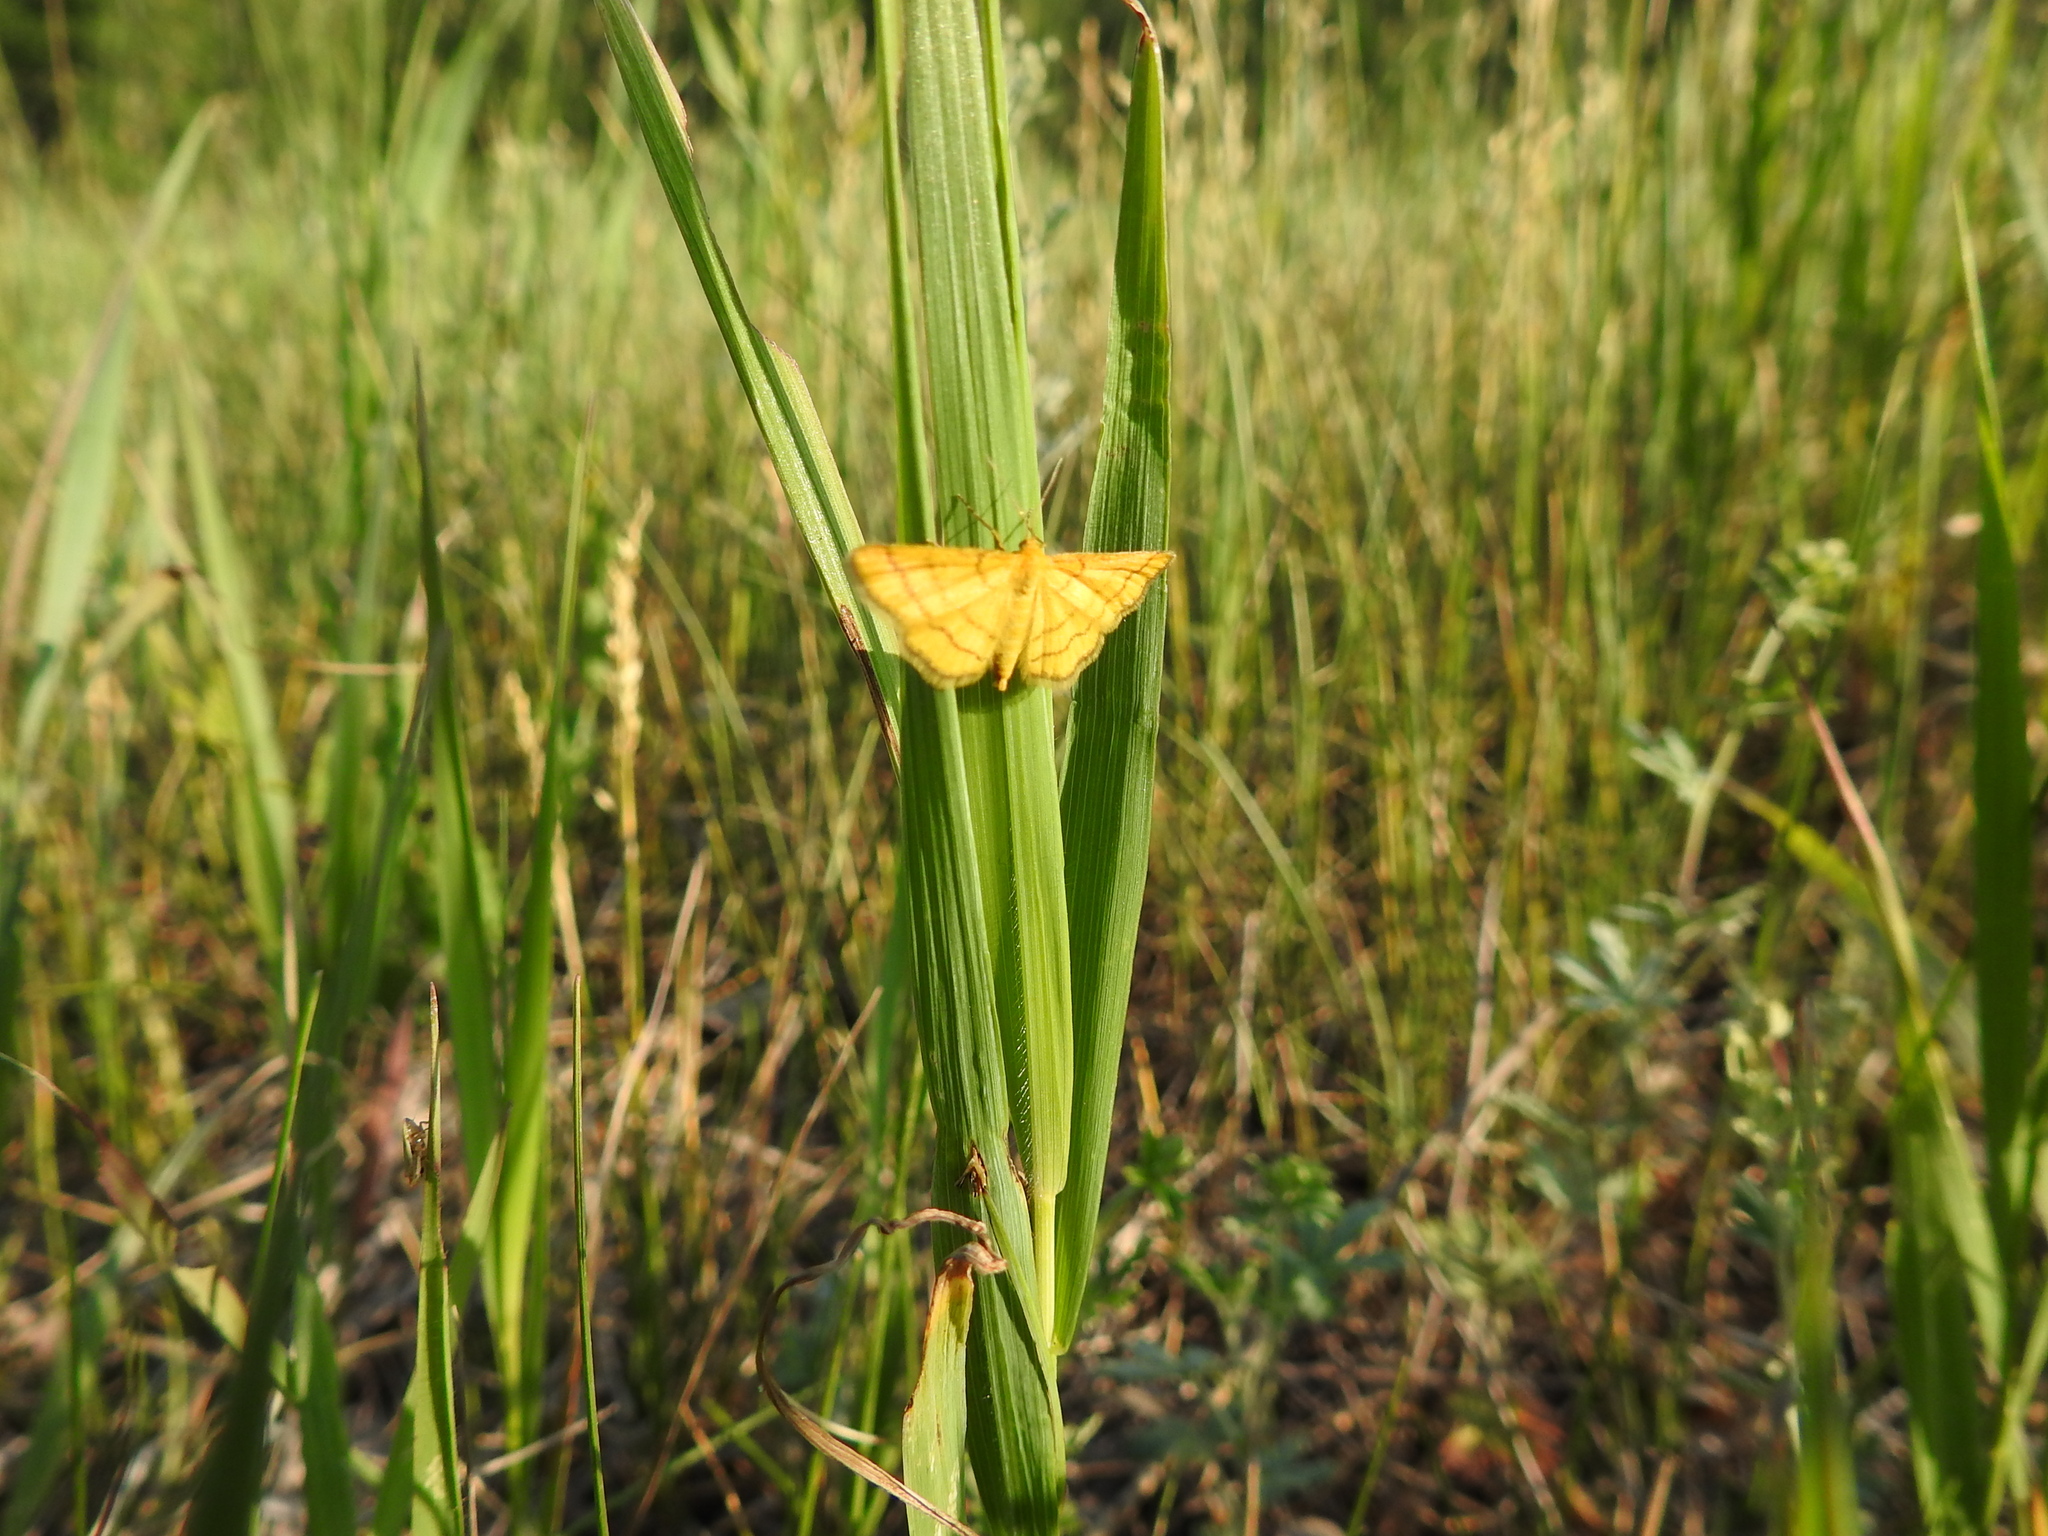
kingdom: Animalia
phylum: Arthropoda
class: Insecta
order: Lepidoptera
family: Geometridae
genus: Idaea
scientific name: Idaea aureolaria
